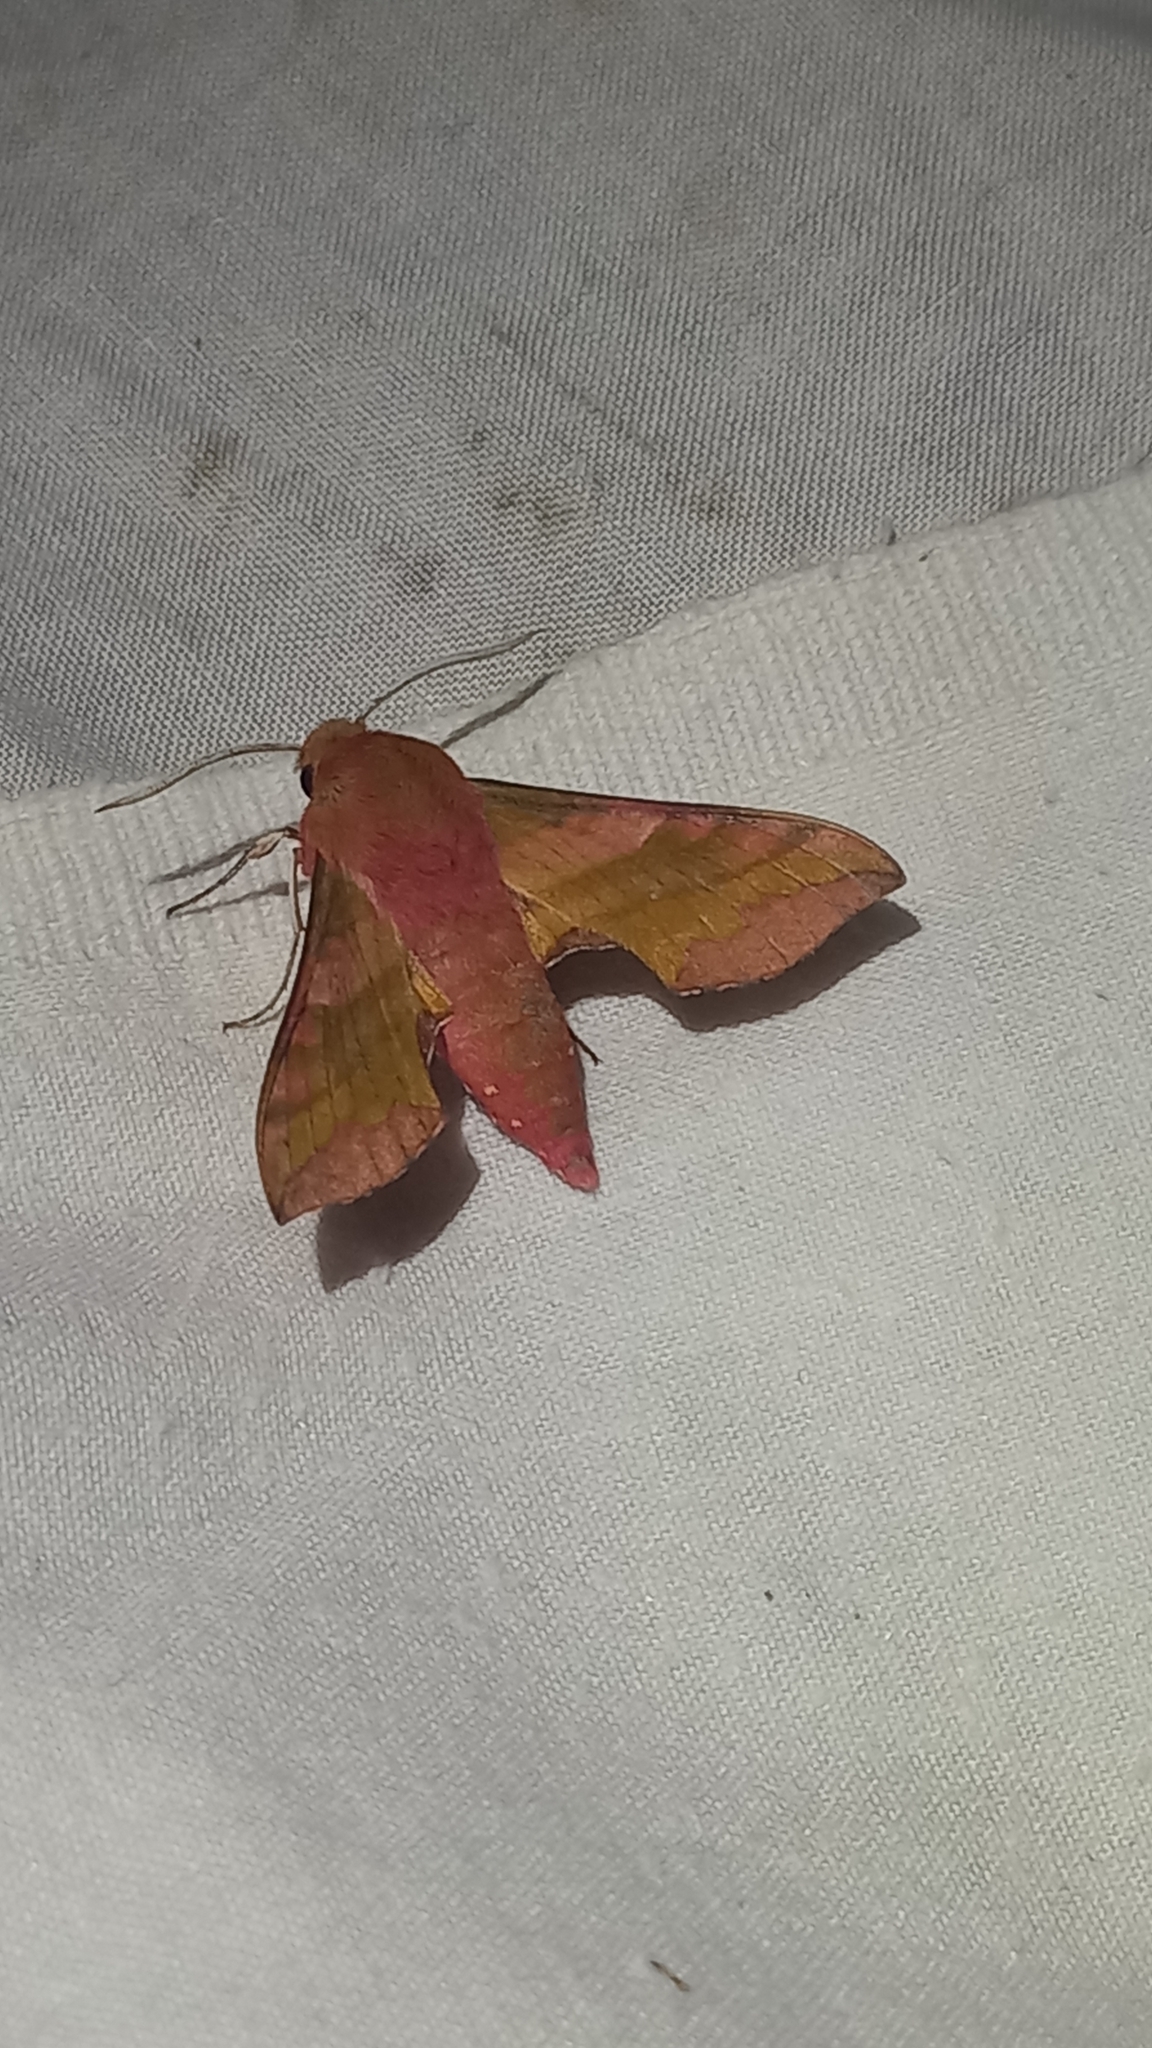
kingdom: Animalia
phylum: Arthropoda
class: Insecta
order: Lepidoptera
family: Sphingidae
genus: Deilephila
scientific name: Deilephila porcellus
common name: Small elephant hawk-moth
